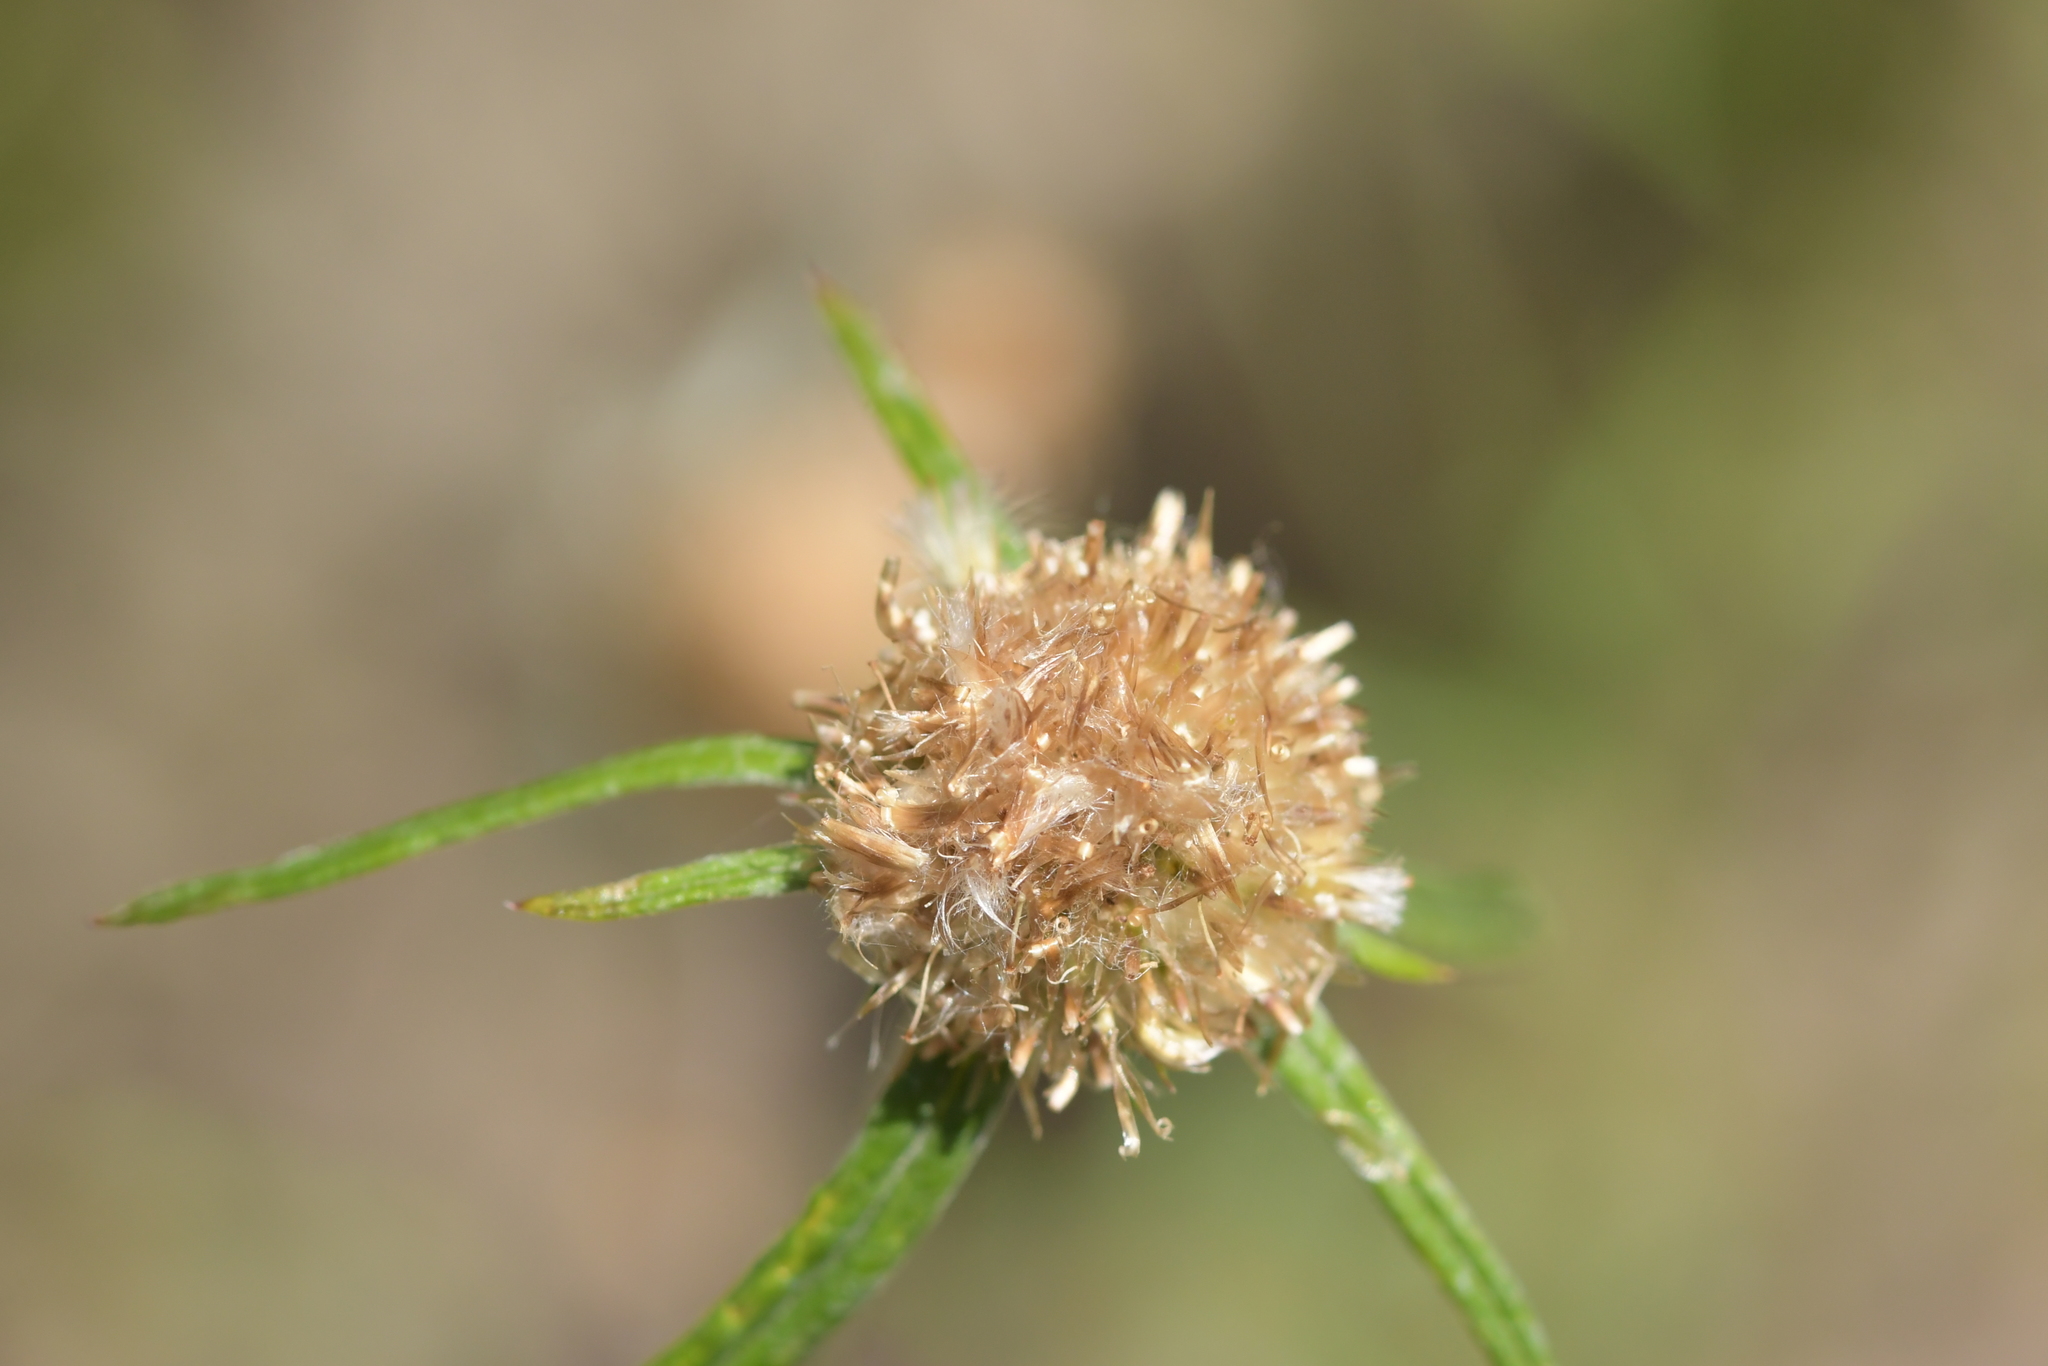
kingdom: Plantae
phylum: Tracheophyta
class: Magnoliopsida
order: Asterales
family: Asteraceae
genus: Euchiton
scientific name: Euchiton sphaericus
